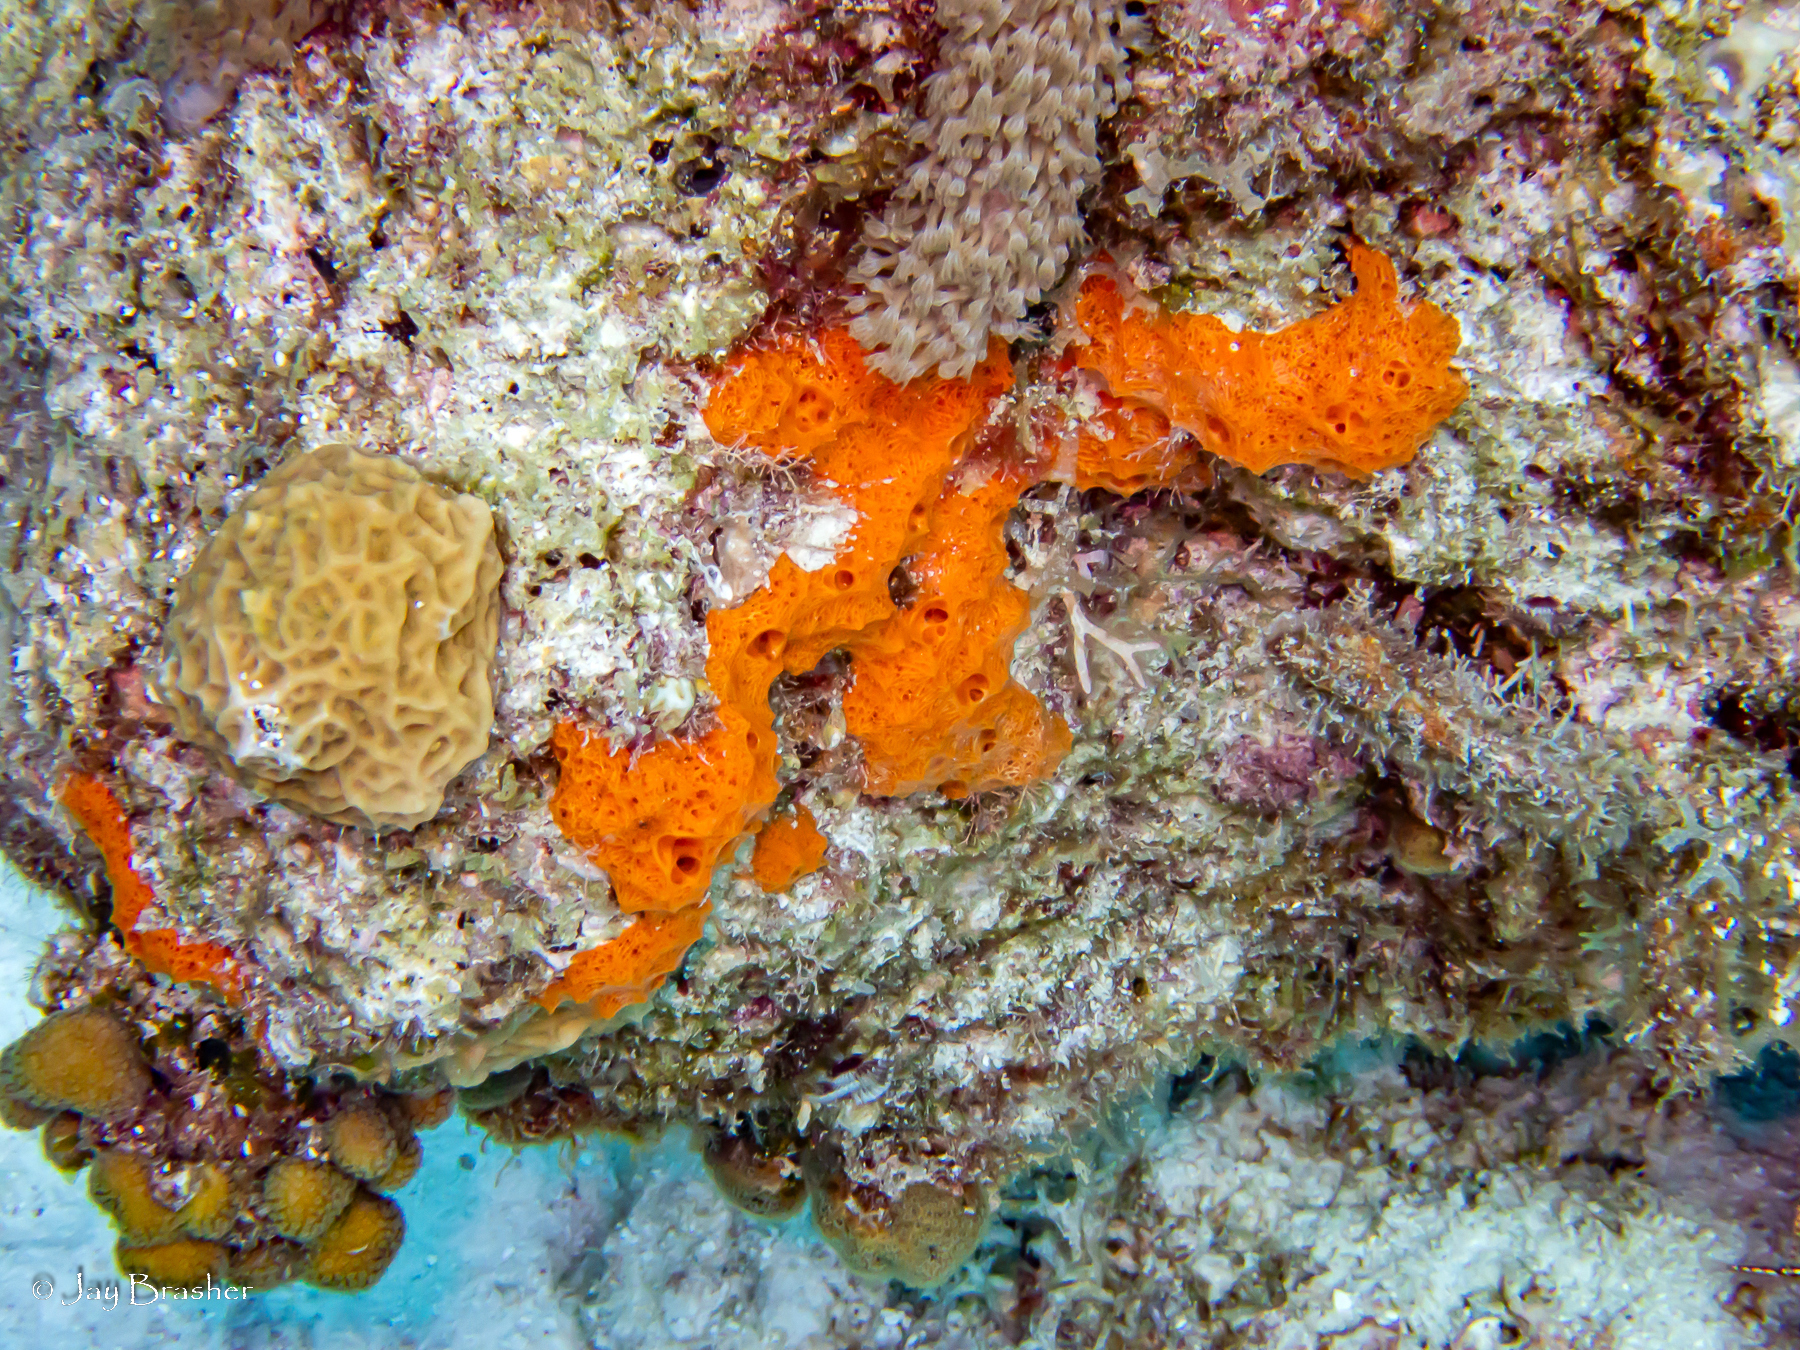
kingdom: Animalia
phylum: Porifera
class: Demospongiae
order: Scopalinida
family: Scopalinidae
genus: Scopalina
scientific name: Scopalina ruetzleri
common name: Orange lumpy encrusting sponge
